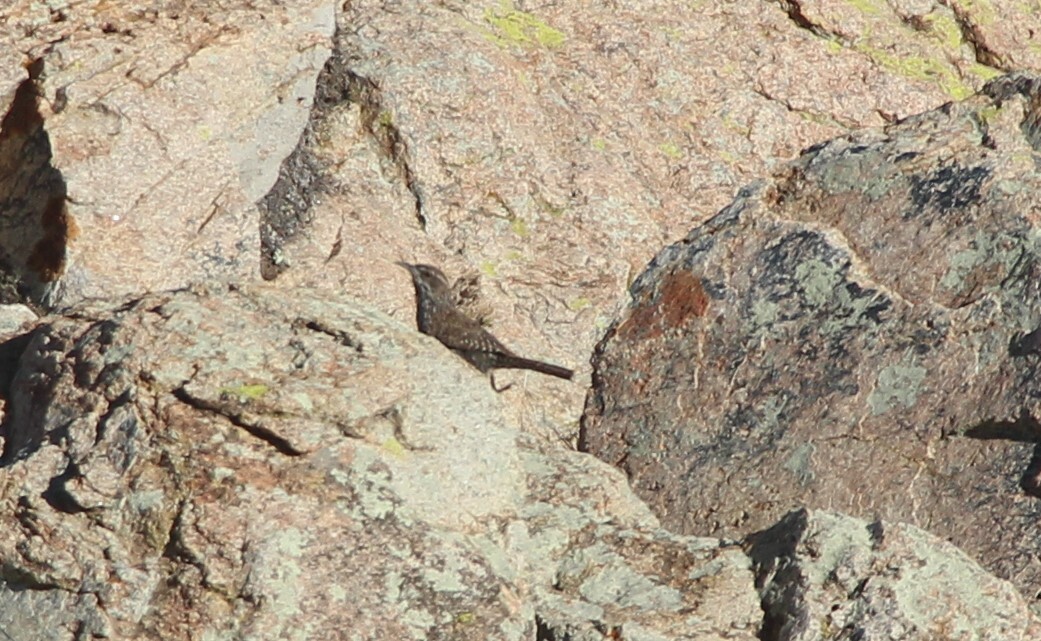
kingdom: Animalia
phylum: Chordata
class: Aves
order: Passeriformes
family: Troglodytidae
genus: Salpinctes
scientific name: Salpinctes obsoletus
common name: Rock wren
